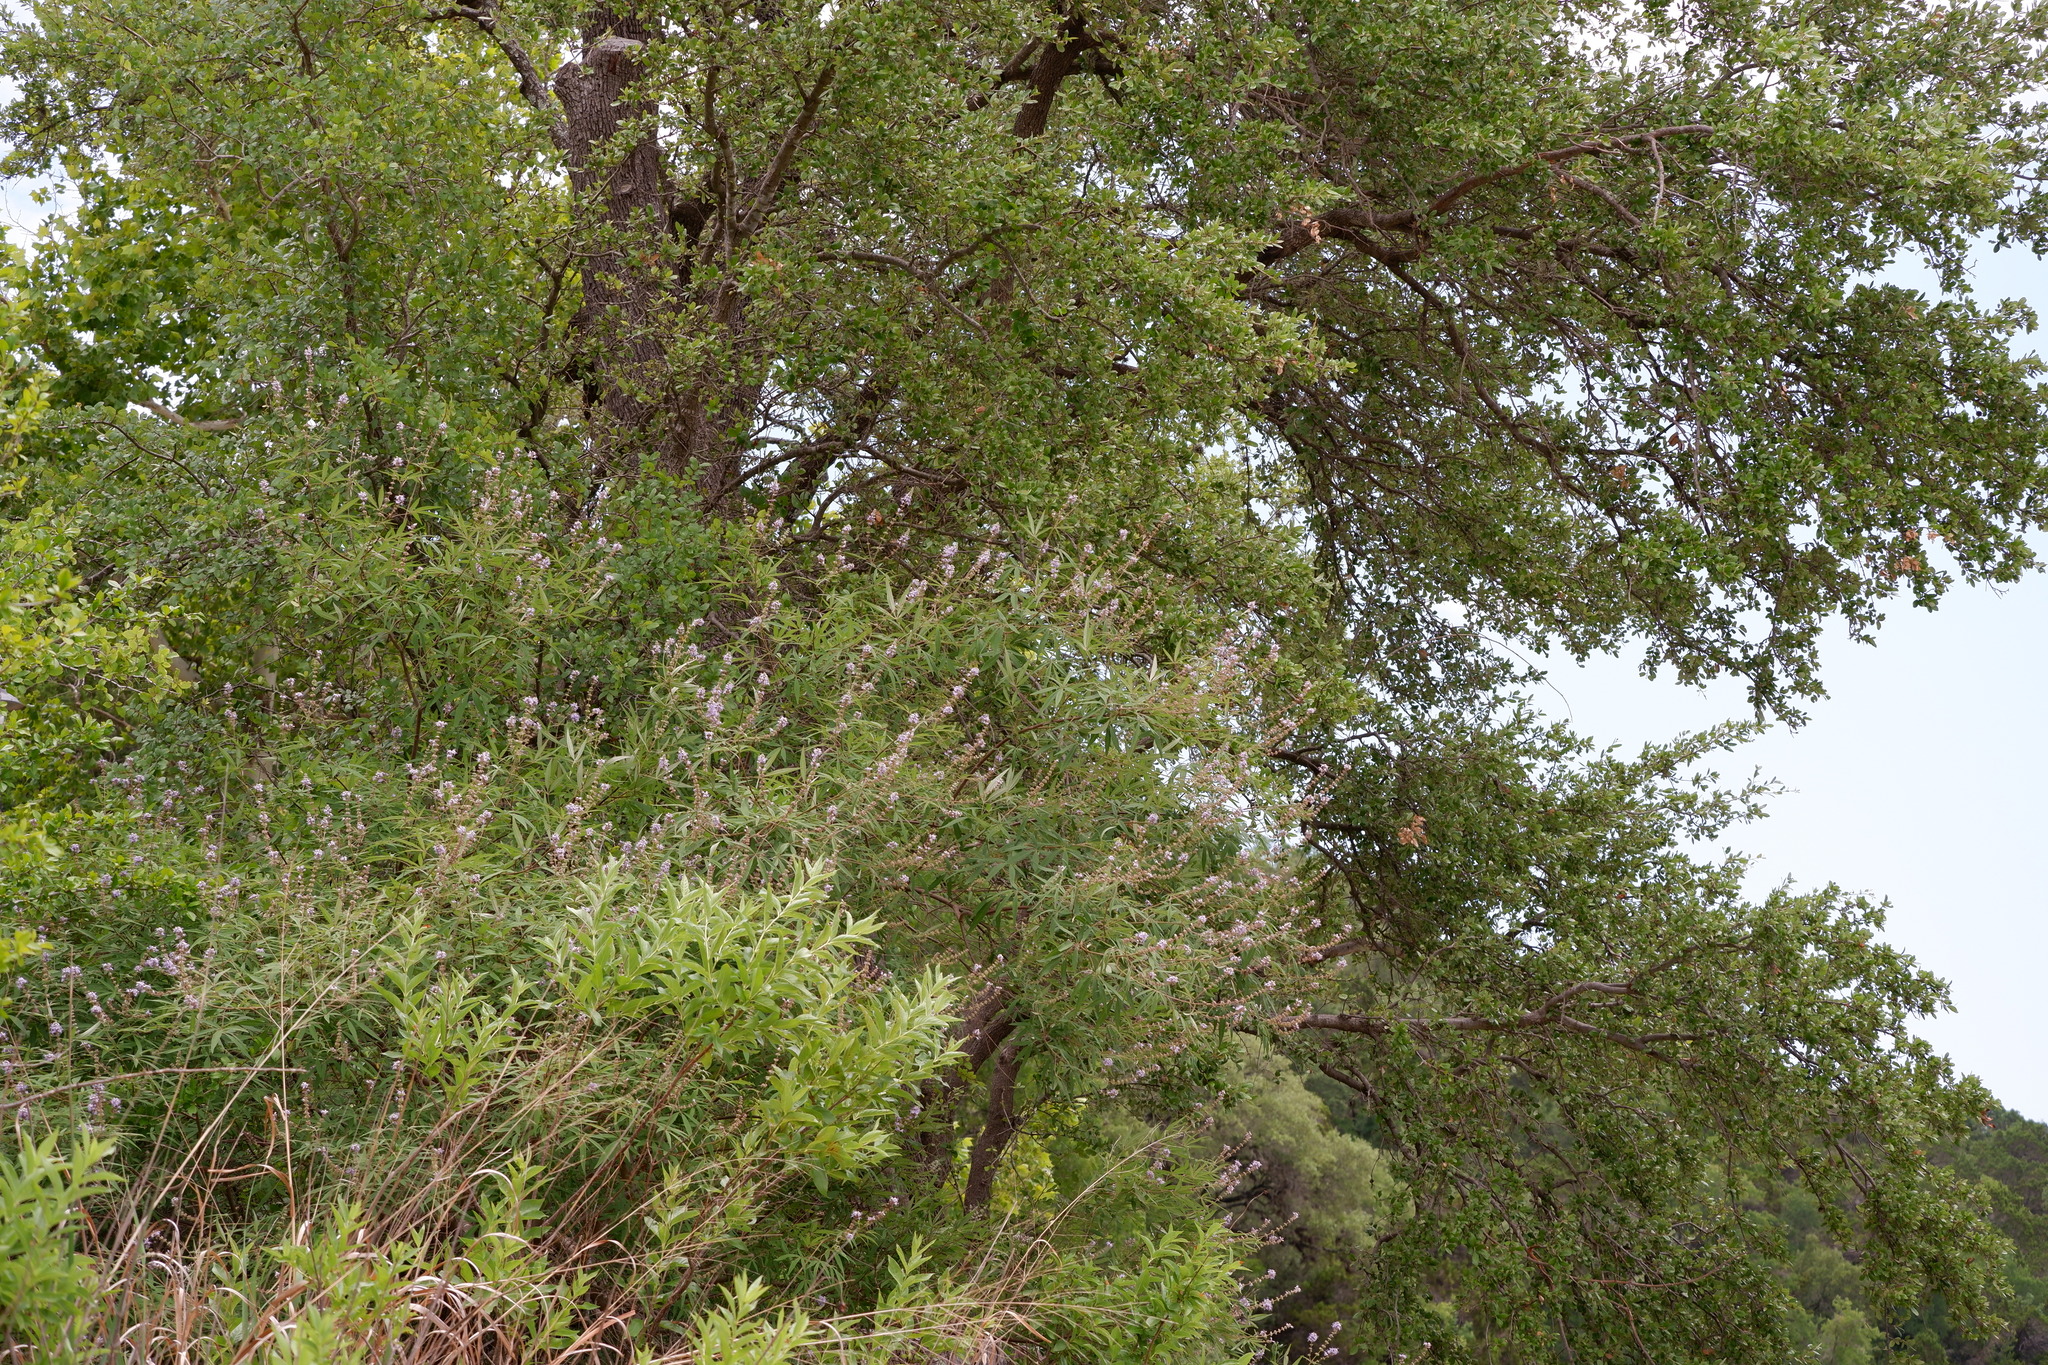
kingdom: Plantae
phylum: Tracheophyta
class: Magnoliopsida
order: Lamiales
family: Lamiaceae
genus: Vitex
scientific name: Vitex agnus-castus
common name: Chasteberry
